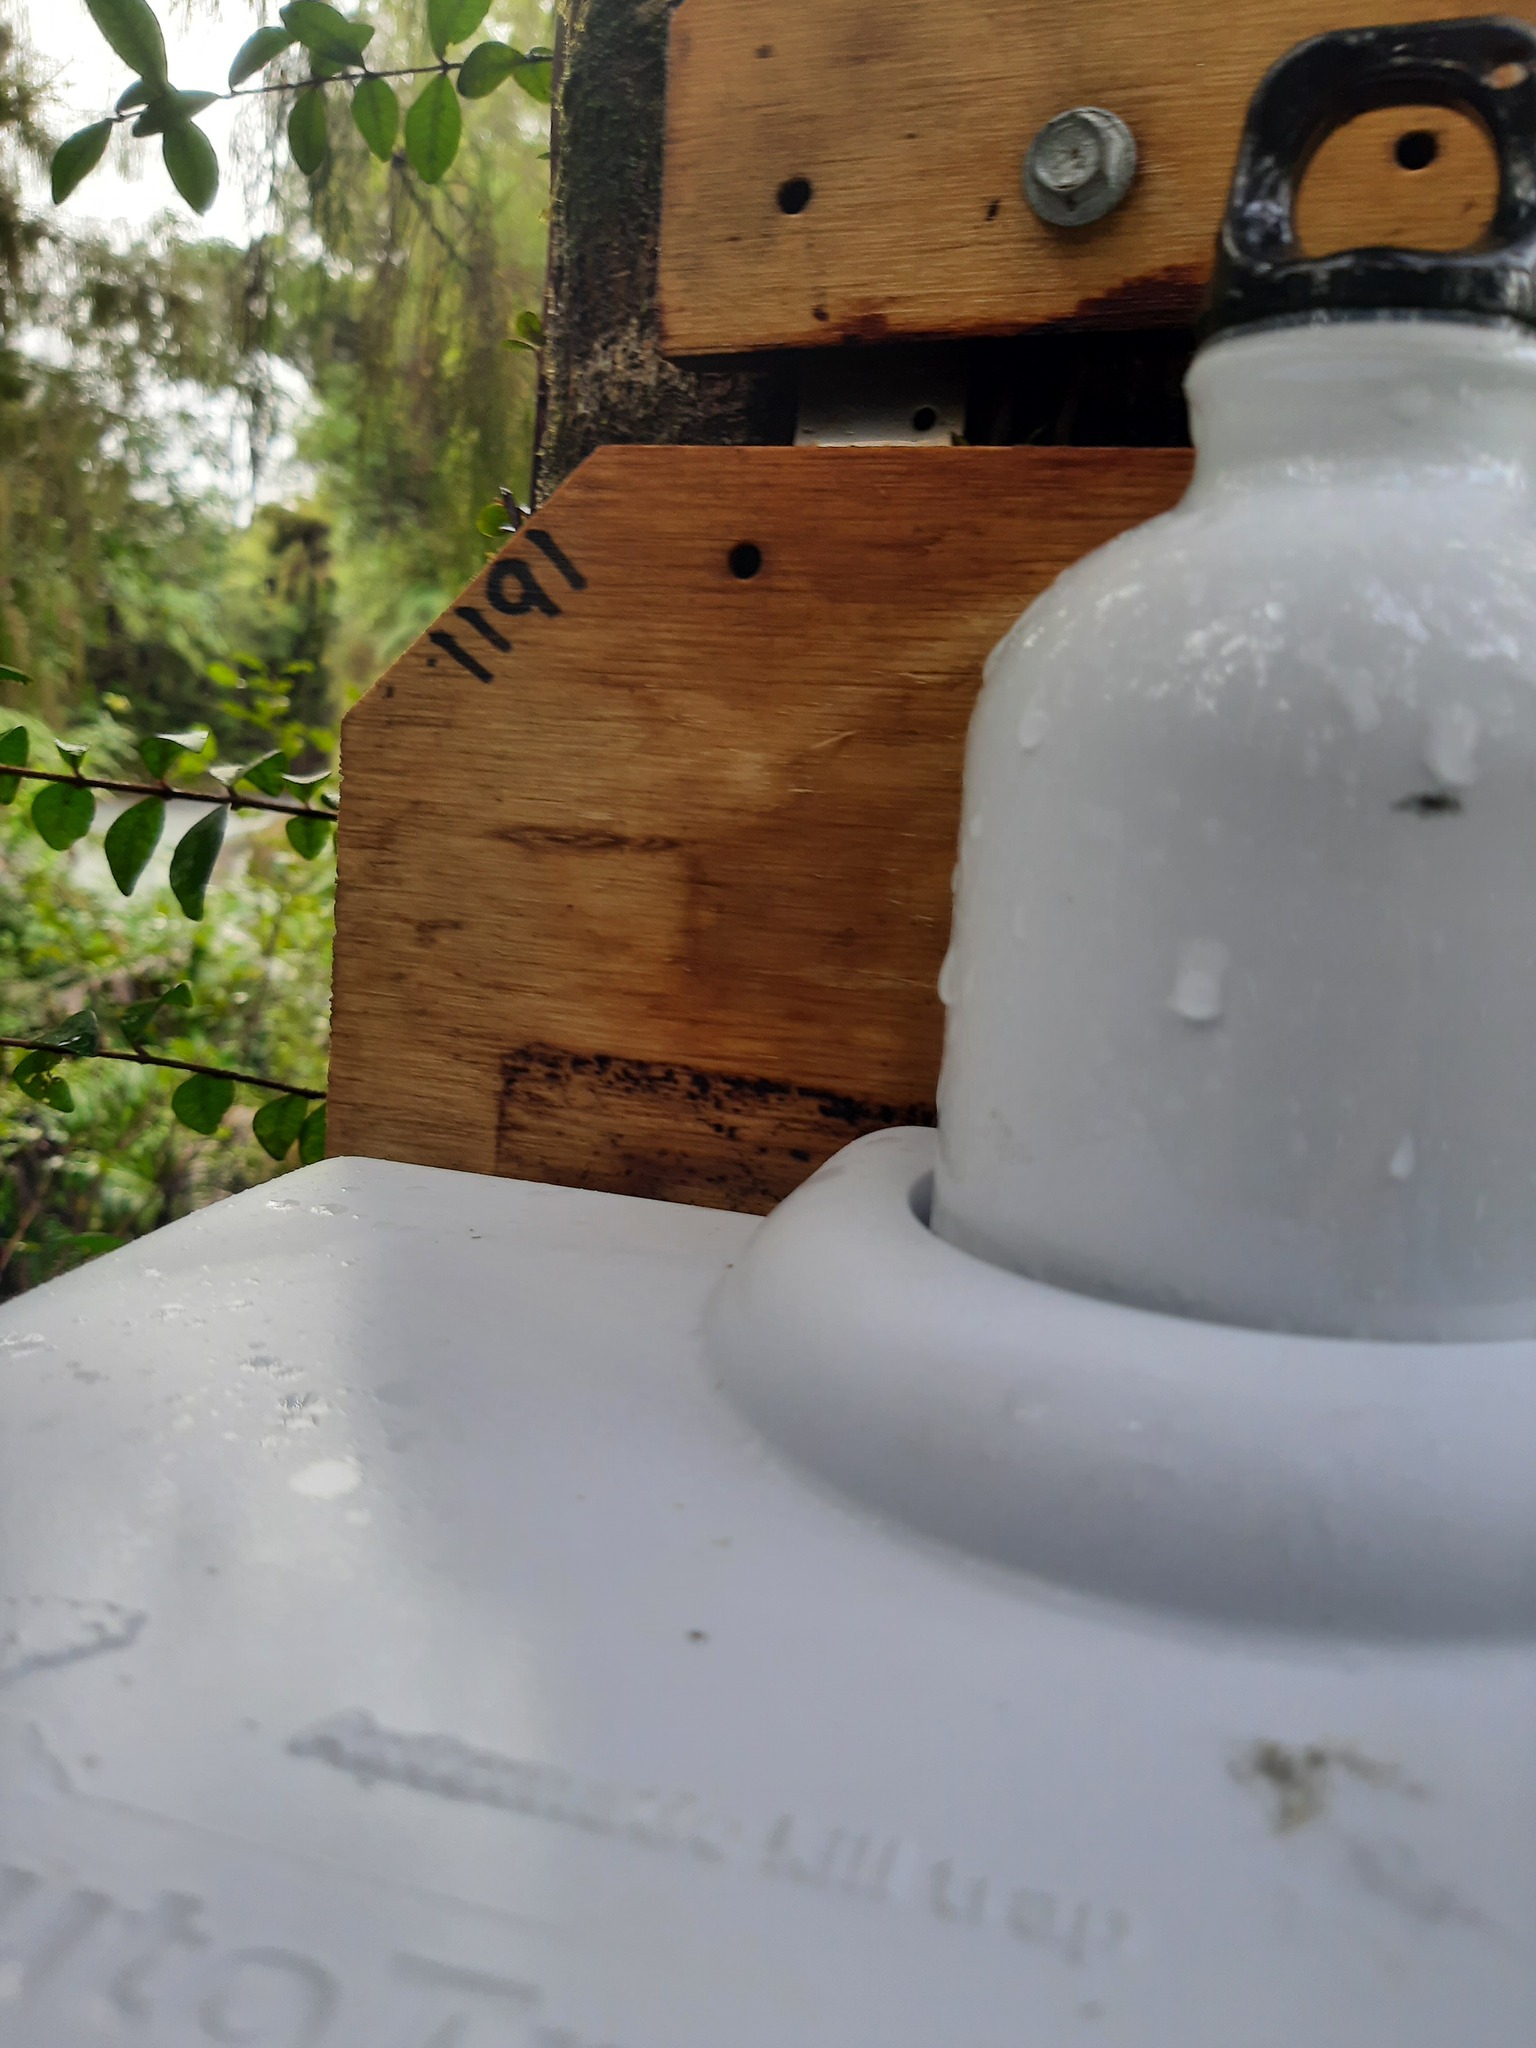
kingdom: Animalia
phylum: Chordata
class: Mammalia
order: Rodentia
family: Muridae
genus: Rattus
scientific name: Rattus rattus
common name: Black rat
